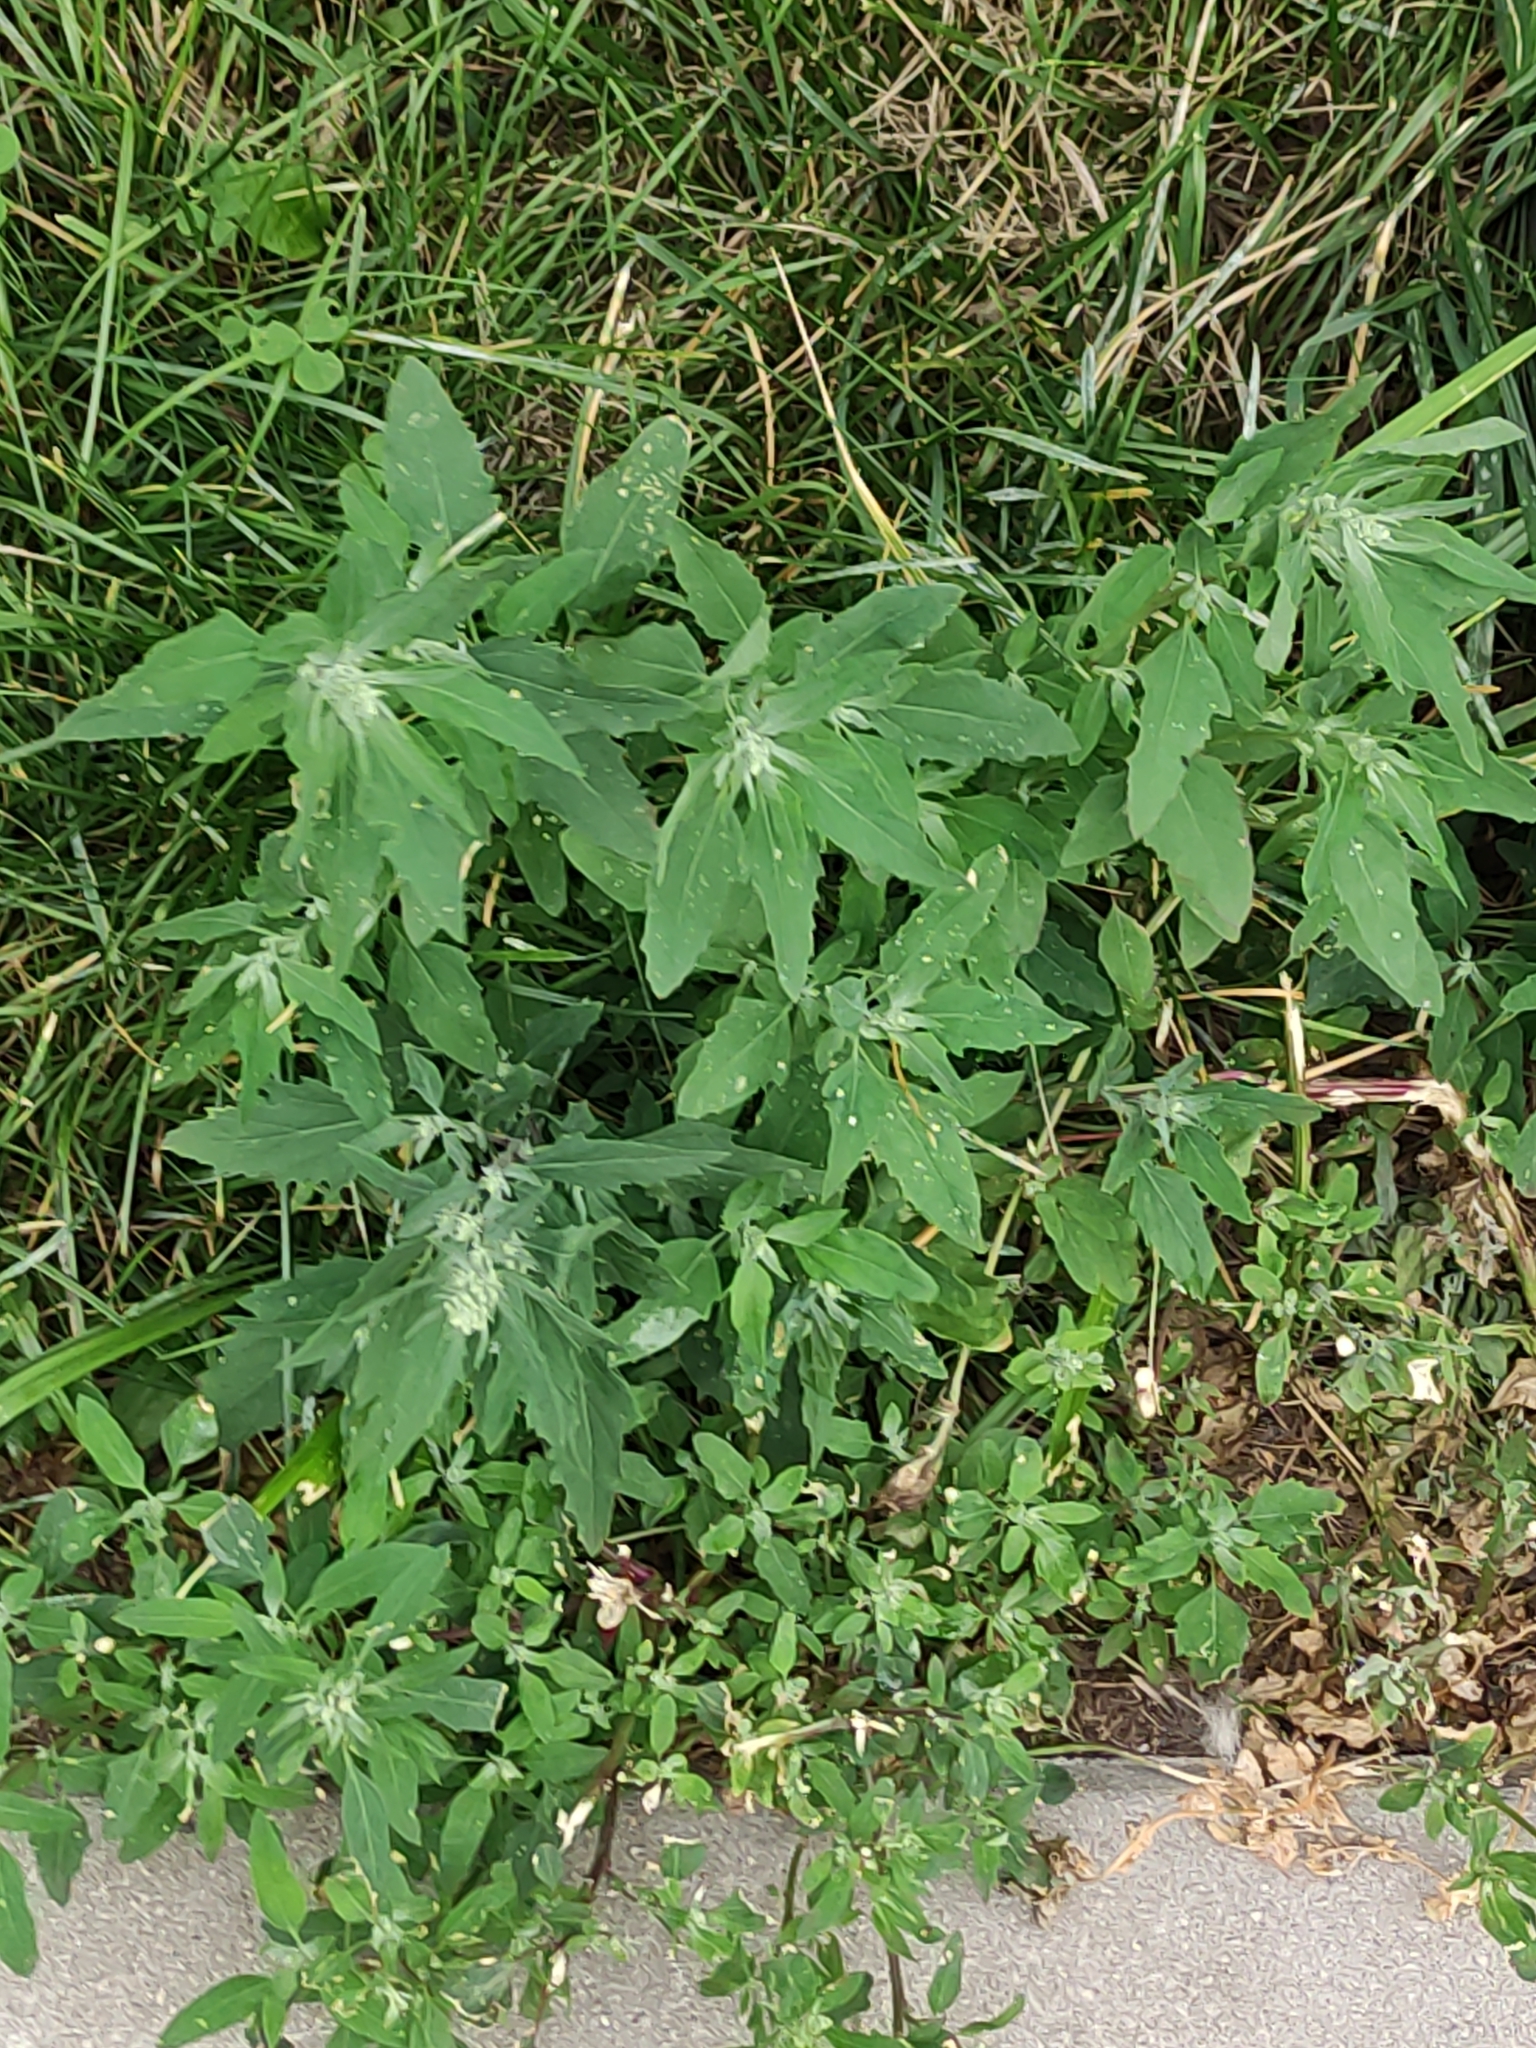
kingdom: Plantae
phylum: Tracheophyta
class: Magnoliopsida
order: Caryophyllales
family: Amaranthaceae
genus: Chenopodium
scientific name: Chenopodium album
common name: Fat-hen
